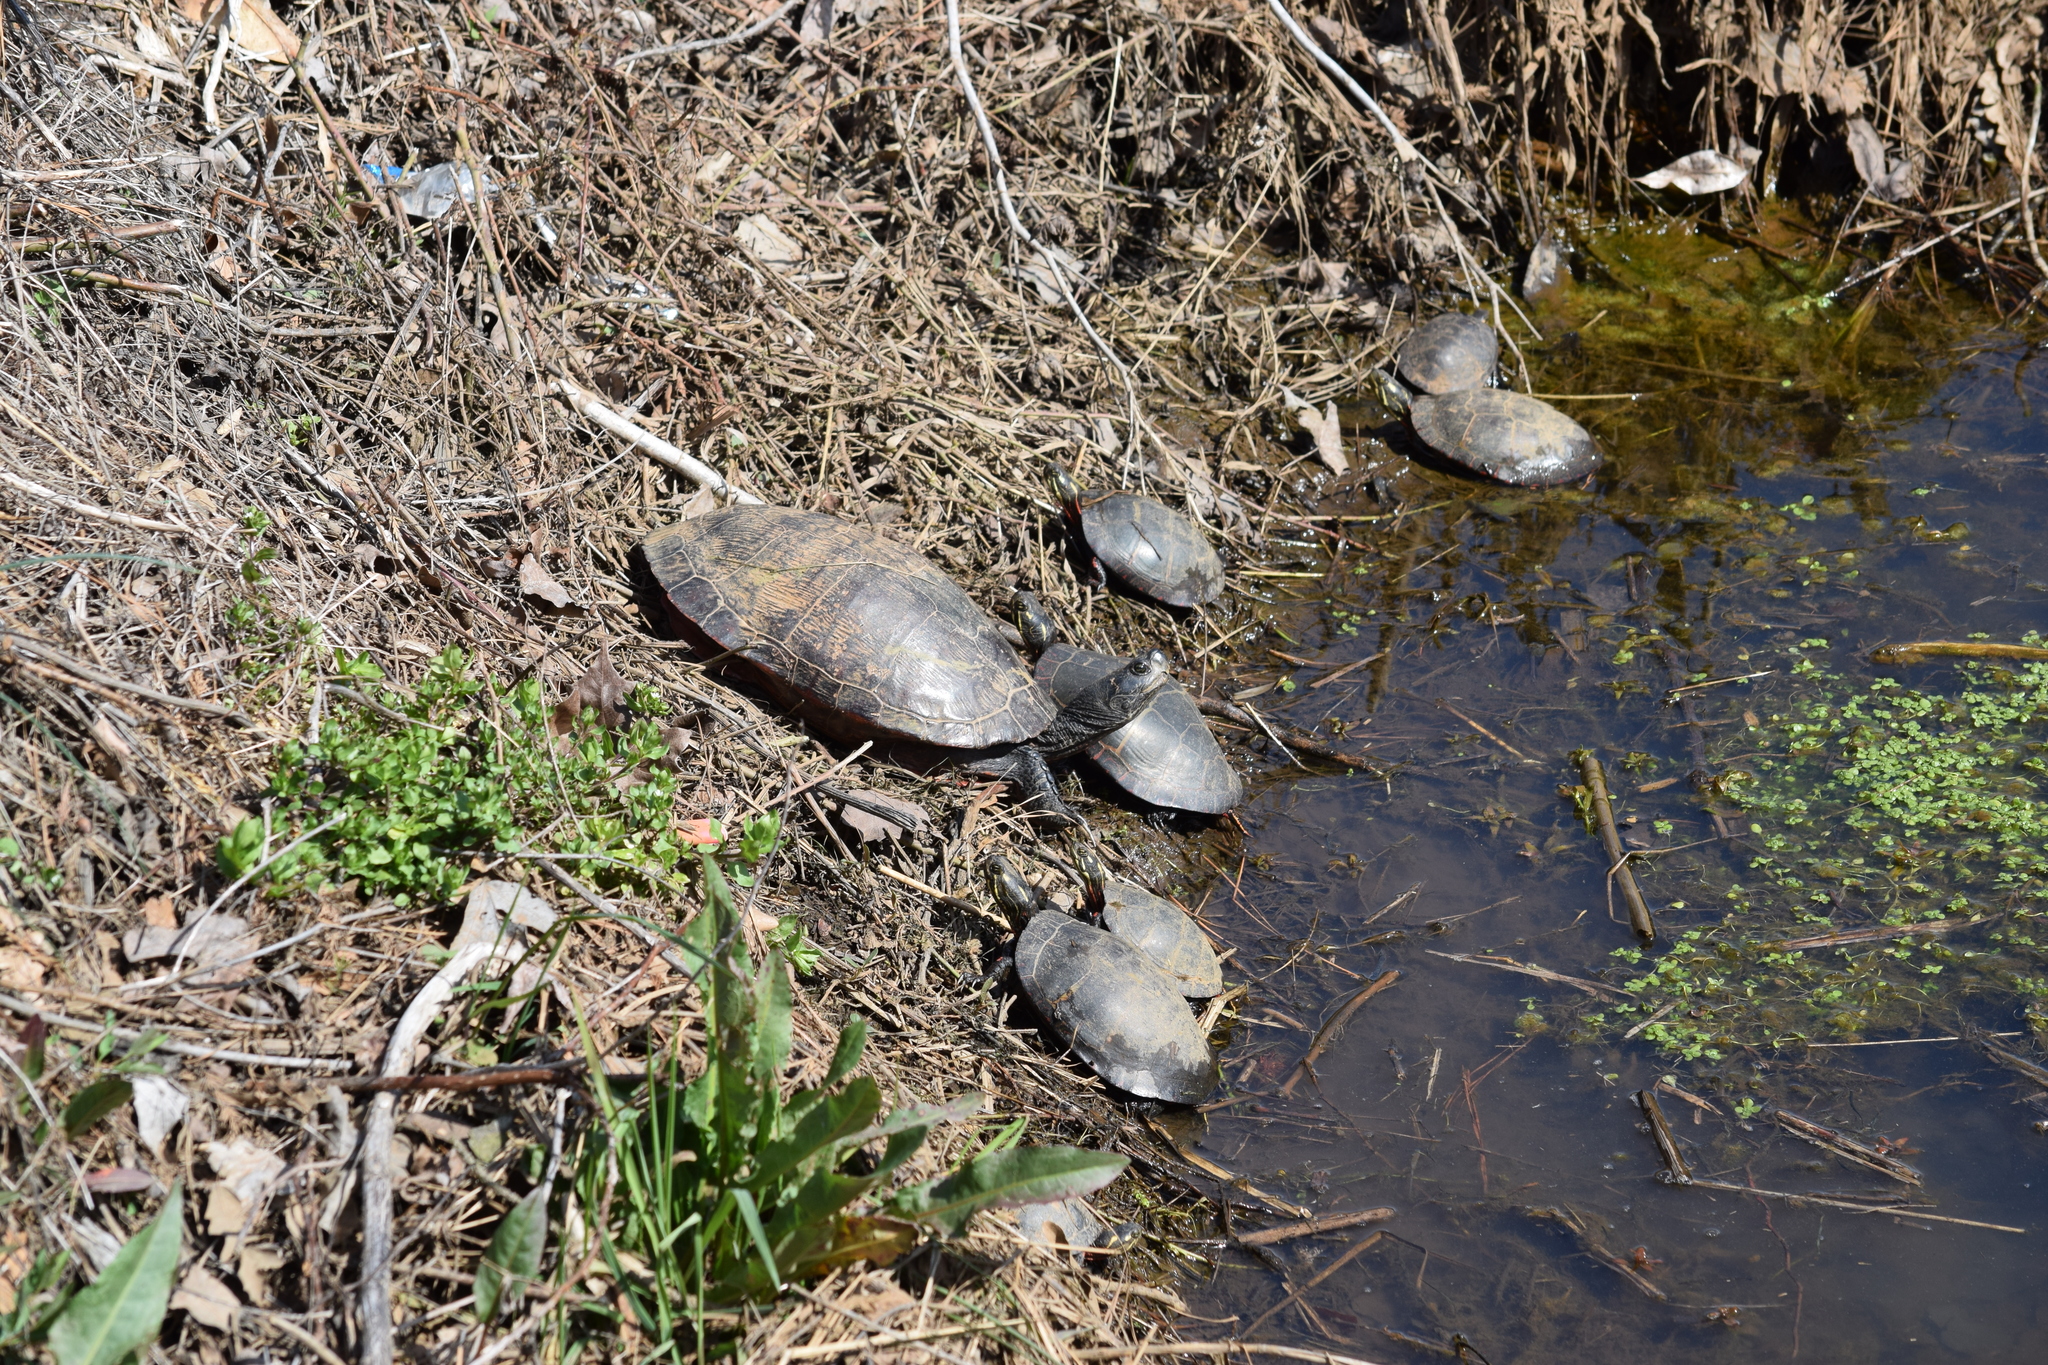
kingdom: Animalia
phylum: Chordata
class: Testudines
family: Emydidae
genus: Pseudemys
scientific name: Pseudemys rubriventris
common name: American red-bellied turtle
